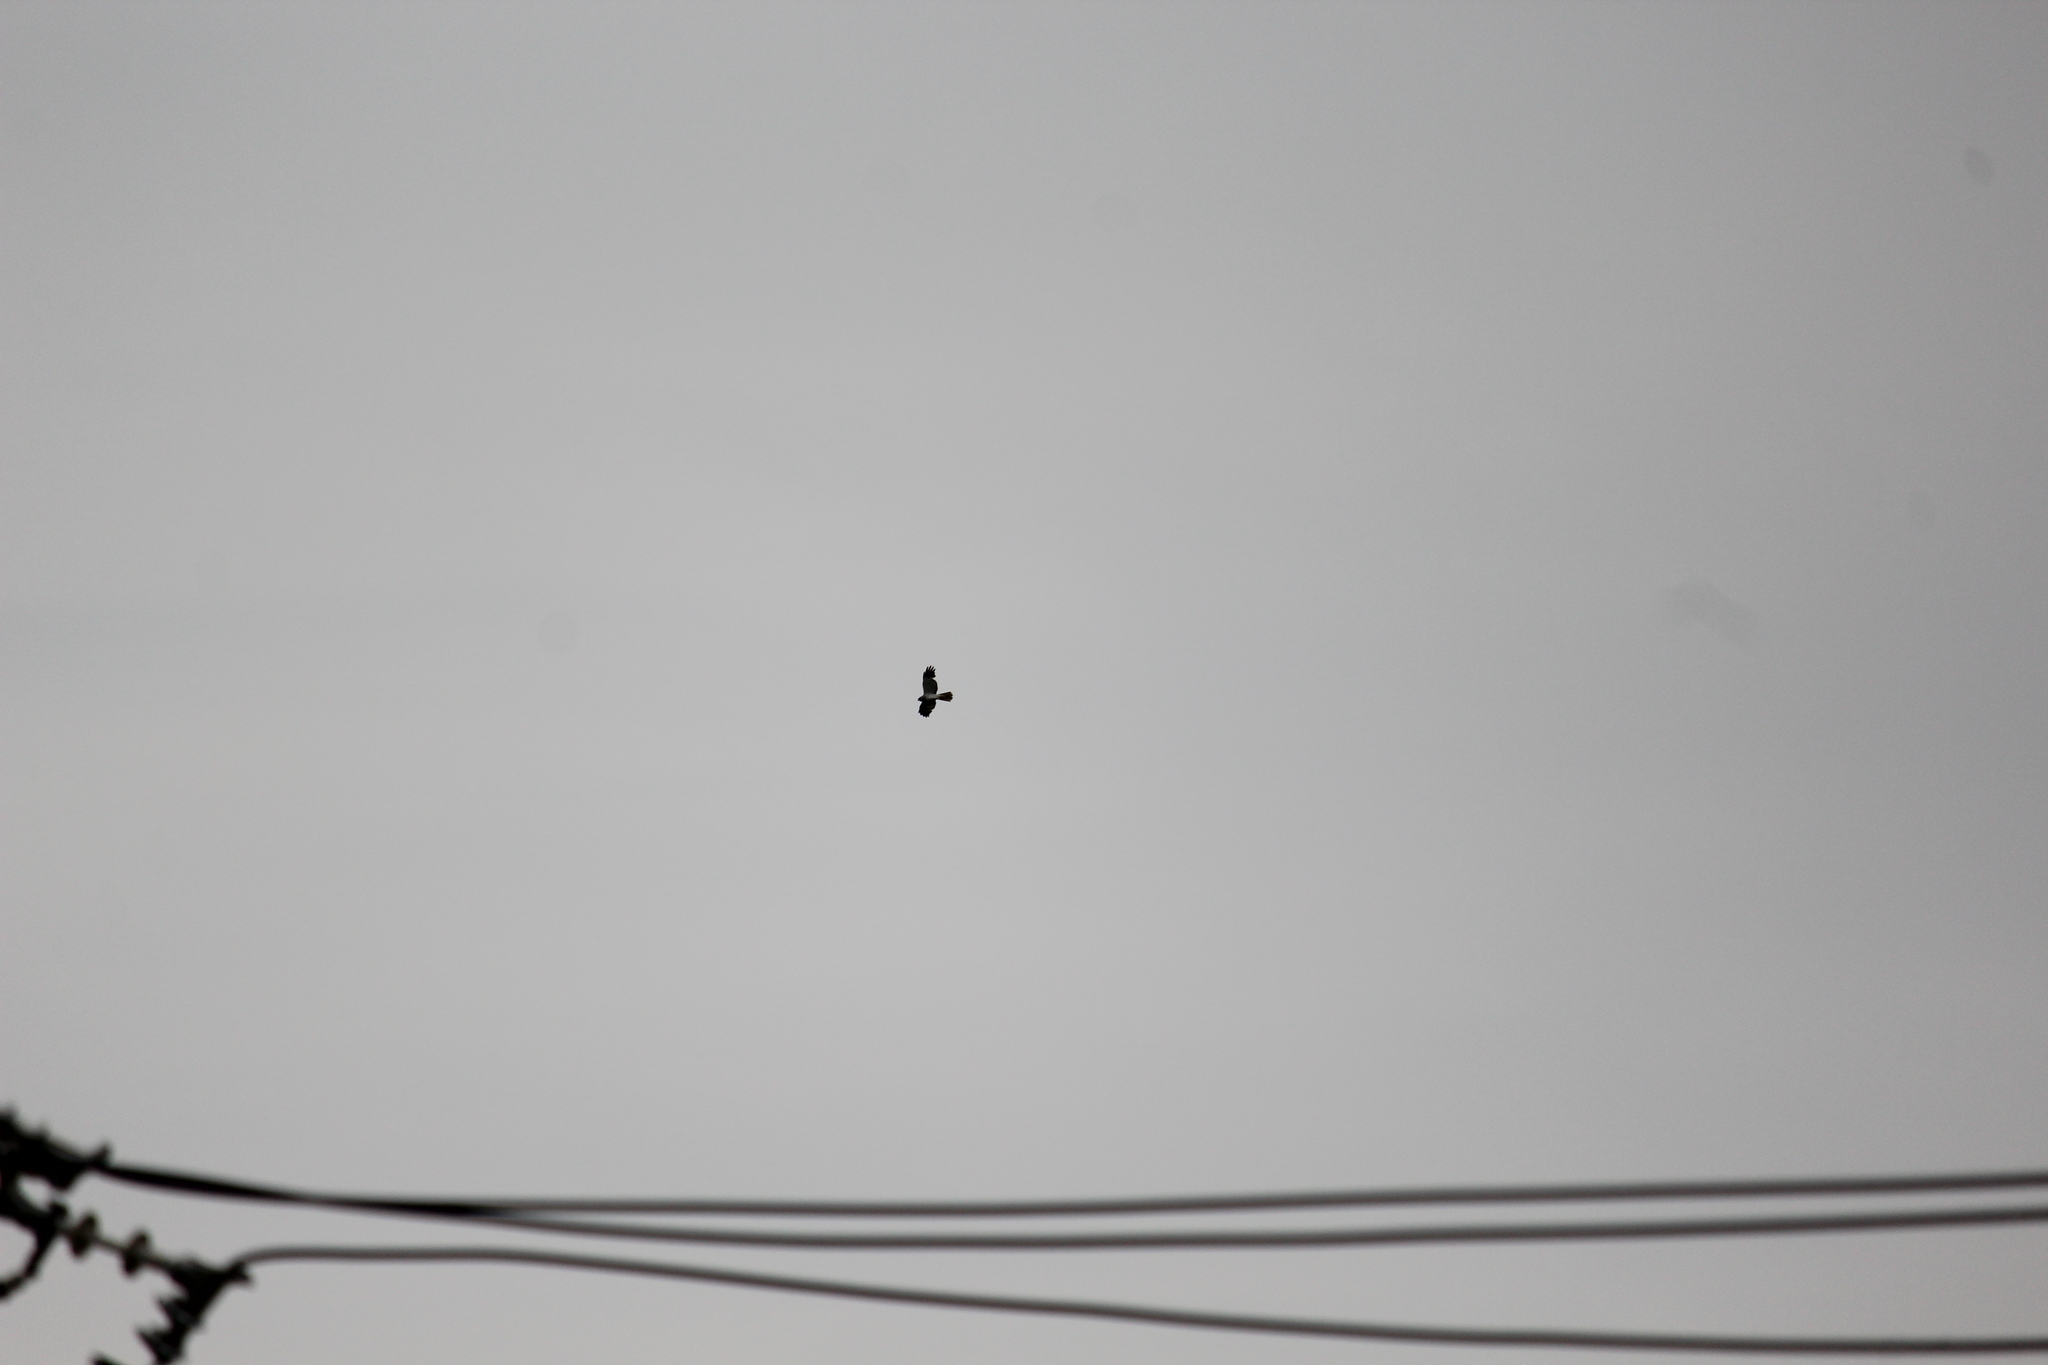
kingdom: Animalia
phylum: Chordata
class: Aves
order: Accipitriformes
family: Accipitridae
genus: Circus
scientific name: Circus cyaneus
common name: Hen harrier
